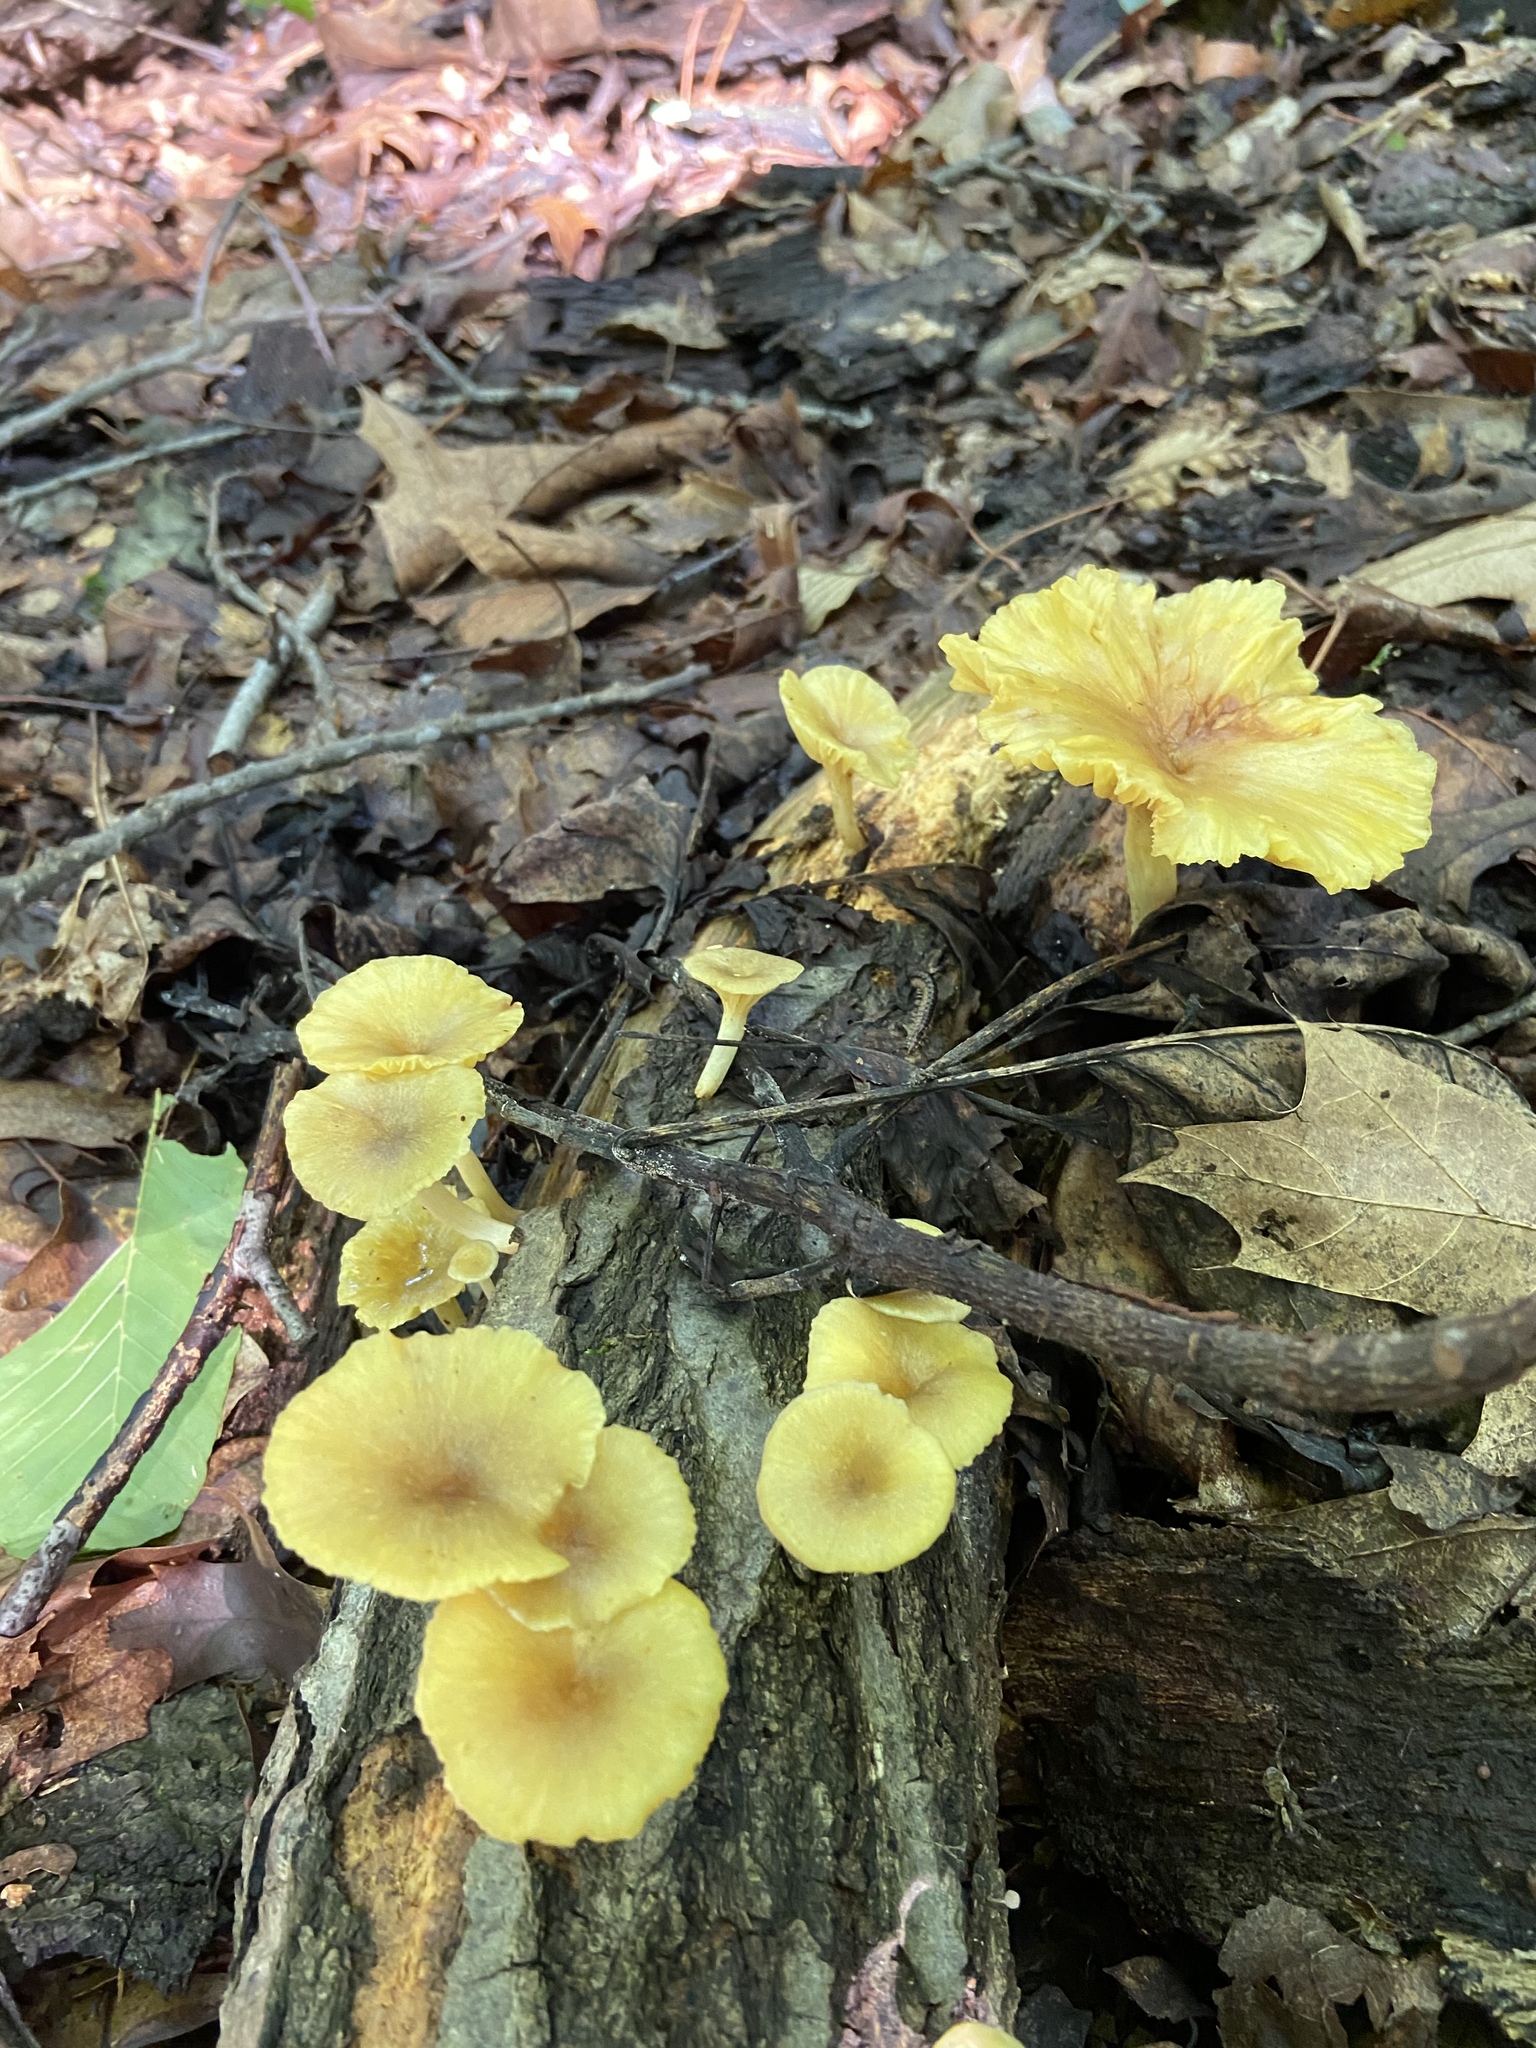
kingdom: Fungi
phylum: Basidiomycota
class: Agaricomycetes
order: Agaricales
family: Marasmiaceae
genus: Gerronema
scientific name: Gerronema strombodes
